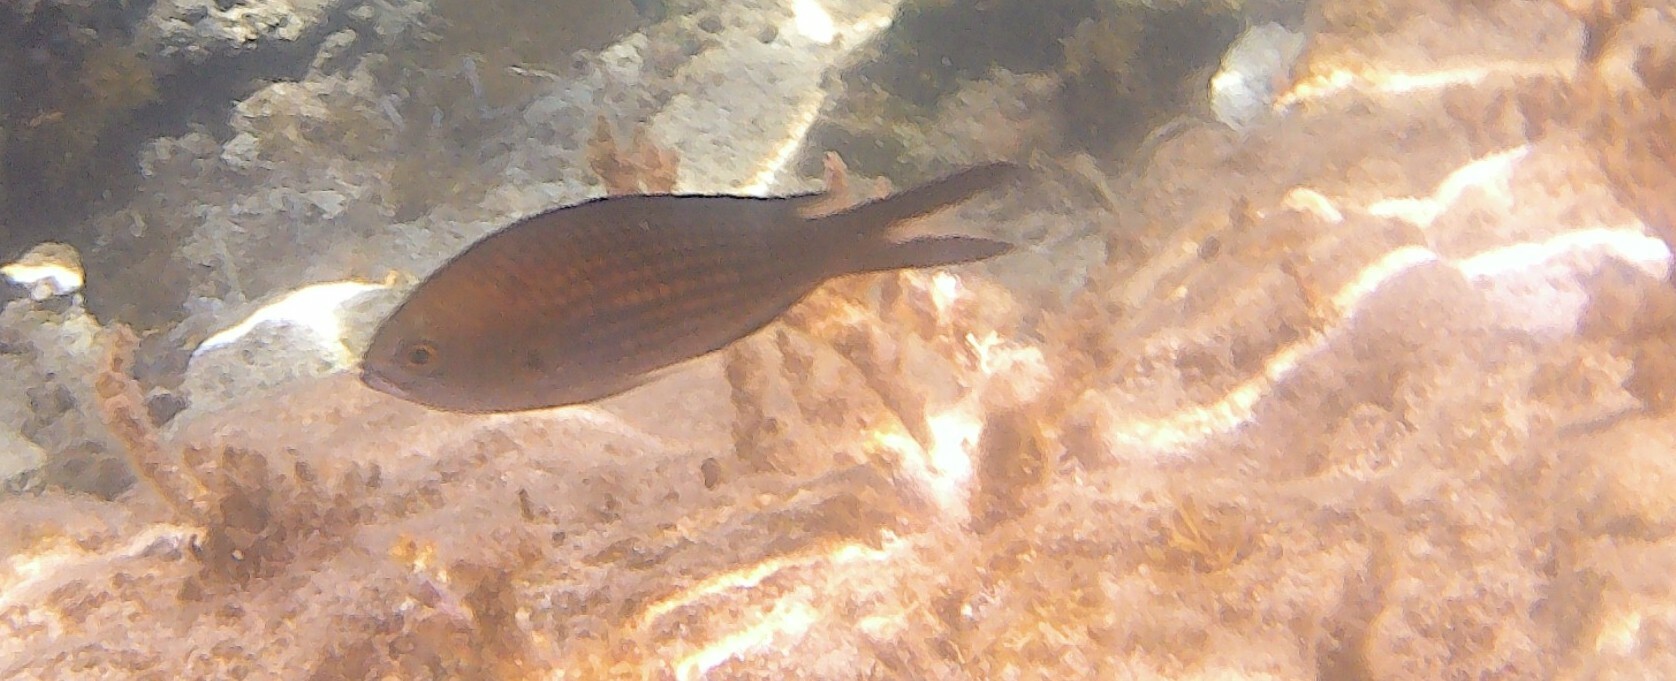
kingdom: Animalia
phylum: Chordata
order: Perciformes
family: Pomacentridae
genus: Chromis
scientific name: Chromis chromis
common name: Damselfish
